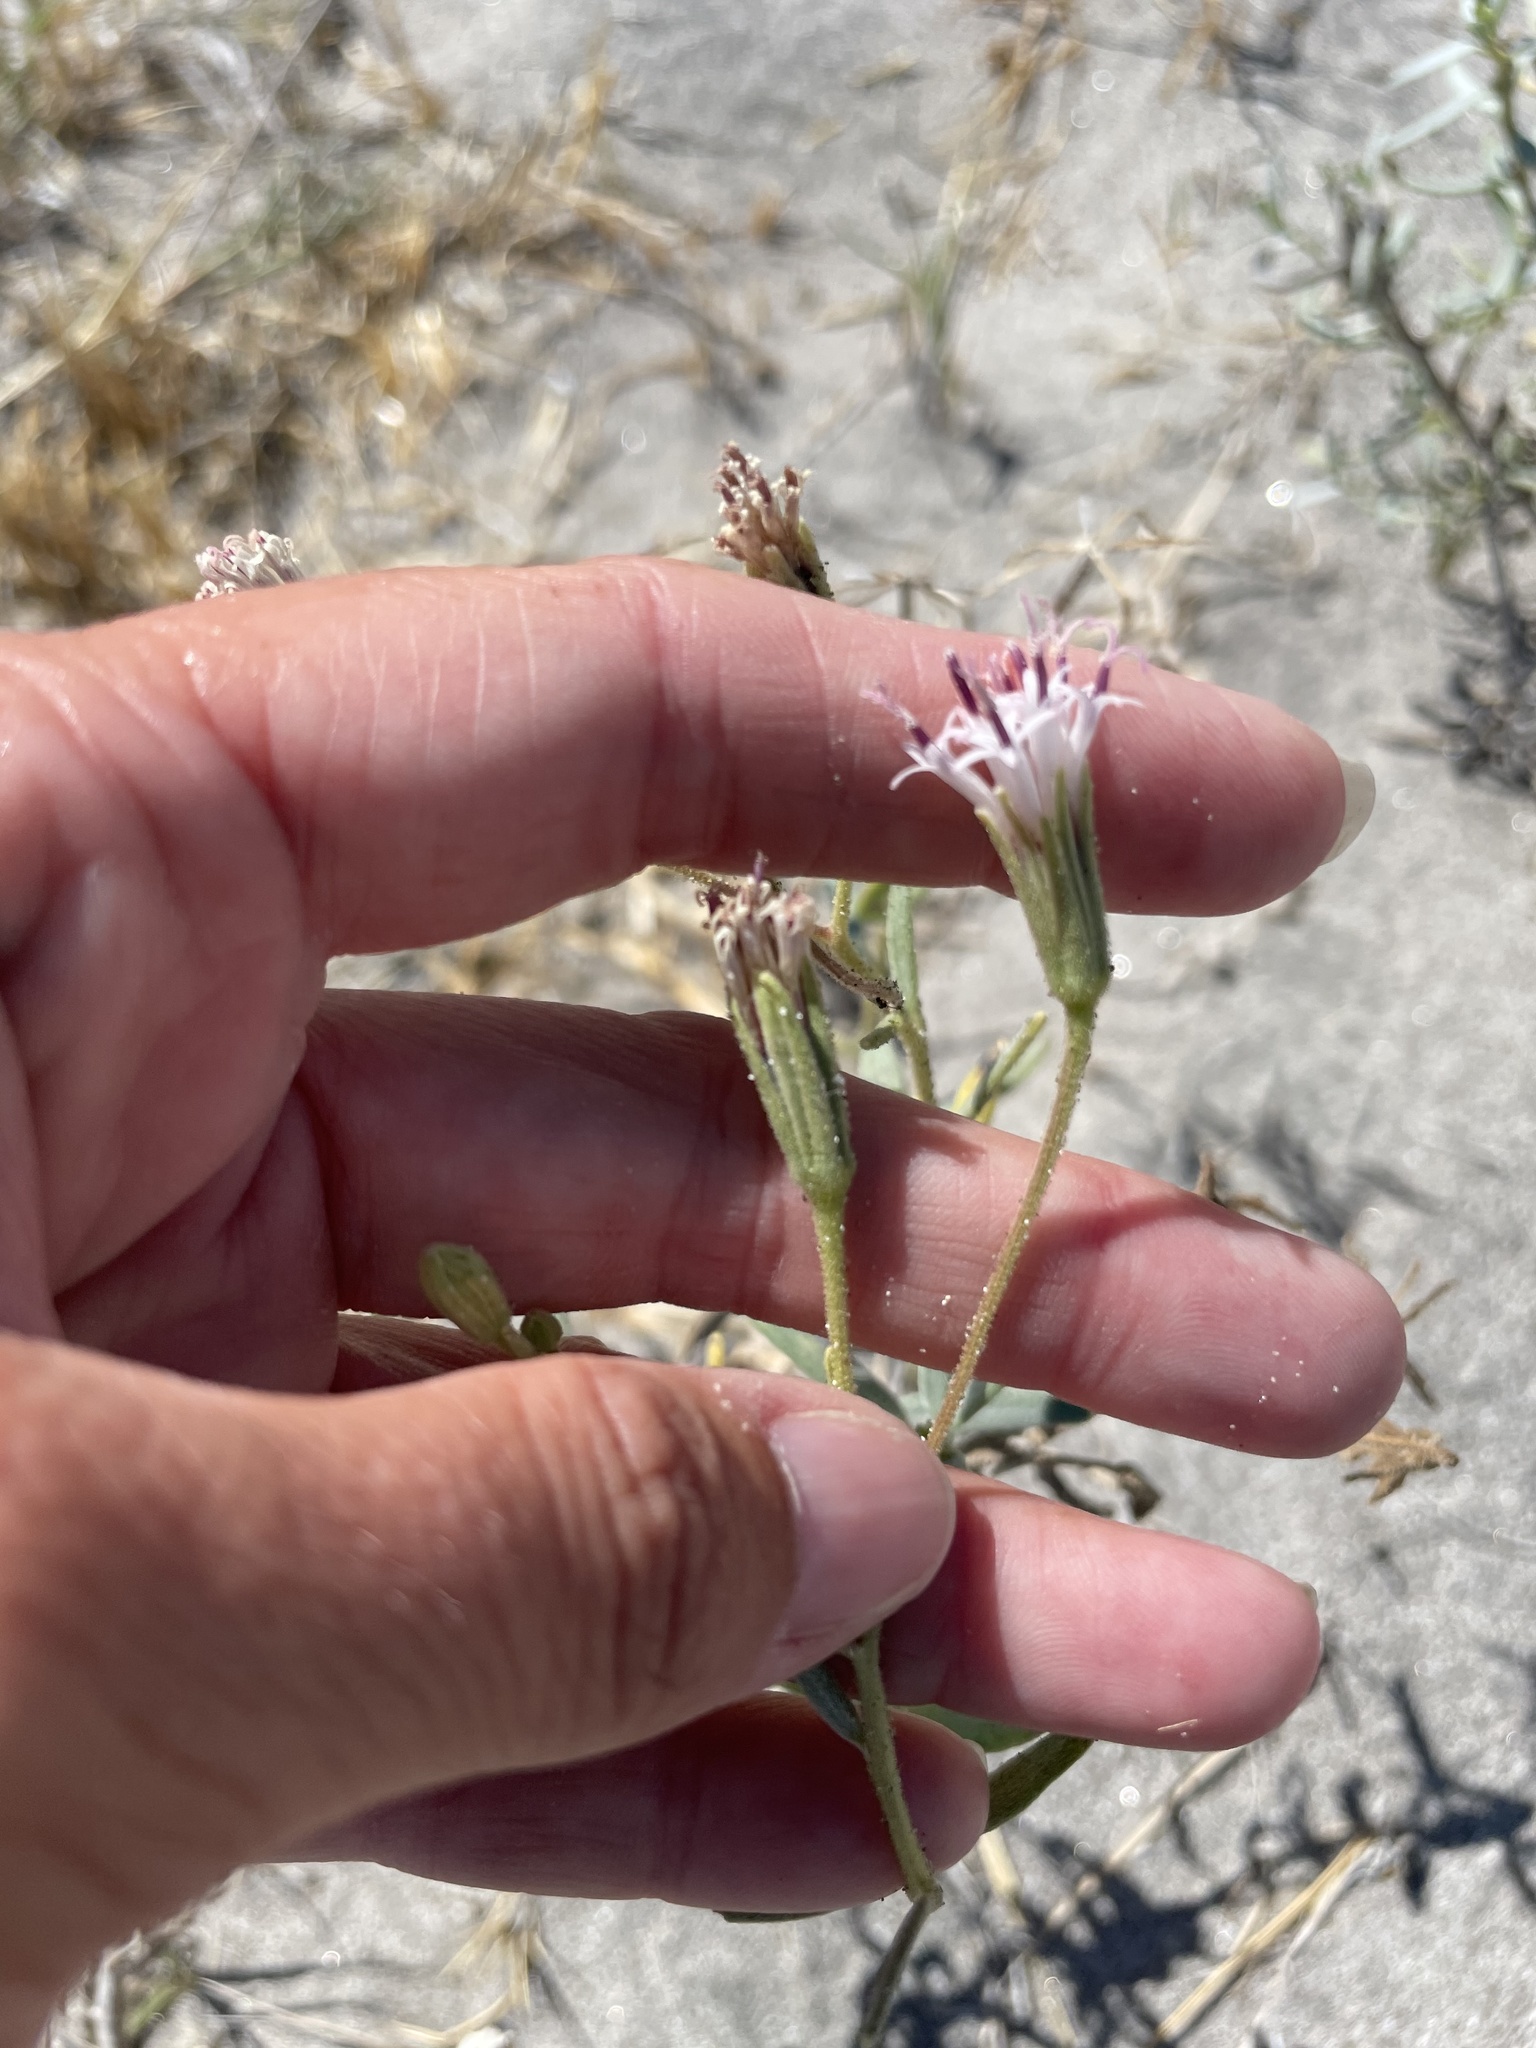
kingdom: Plantae
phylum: Tracheophyta
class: Magnoliopsida
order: Asterales
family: Asteraceae
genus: Palafoxia
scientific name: Palafoxia linearis
